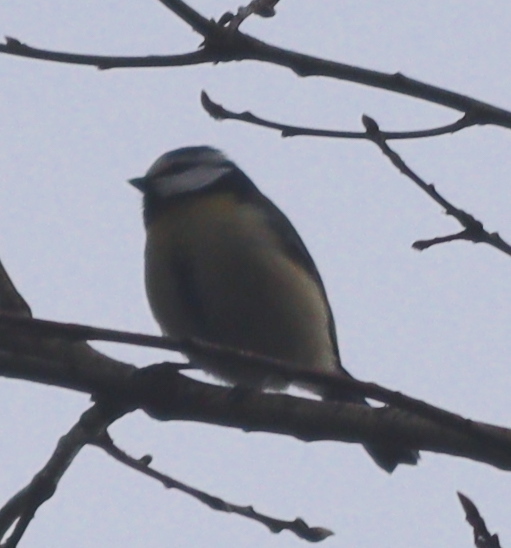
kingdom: Animalia
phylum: Chordata
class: Aves
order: Passeriformes
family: Paridae
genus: Cyanistes
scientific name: Cyanistes caeruleus
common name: Eurasian blue tit
